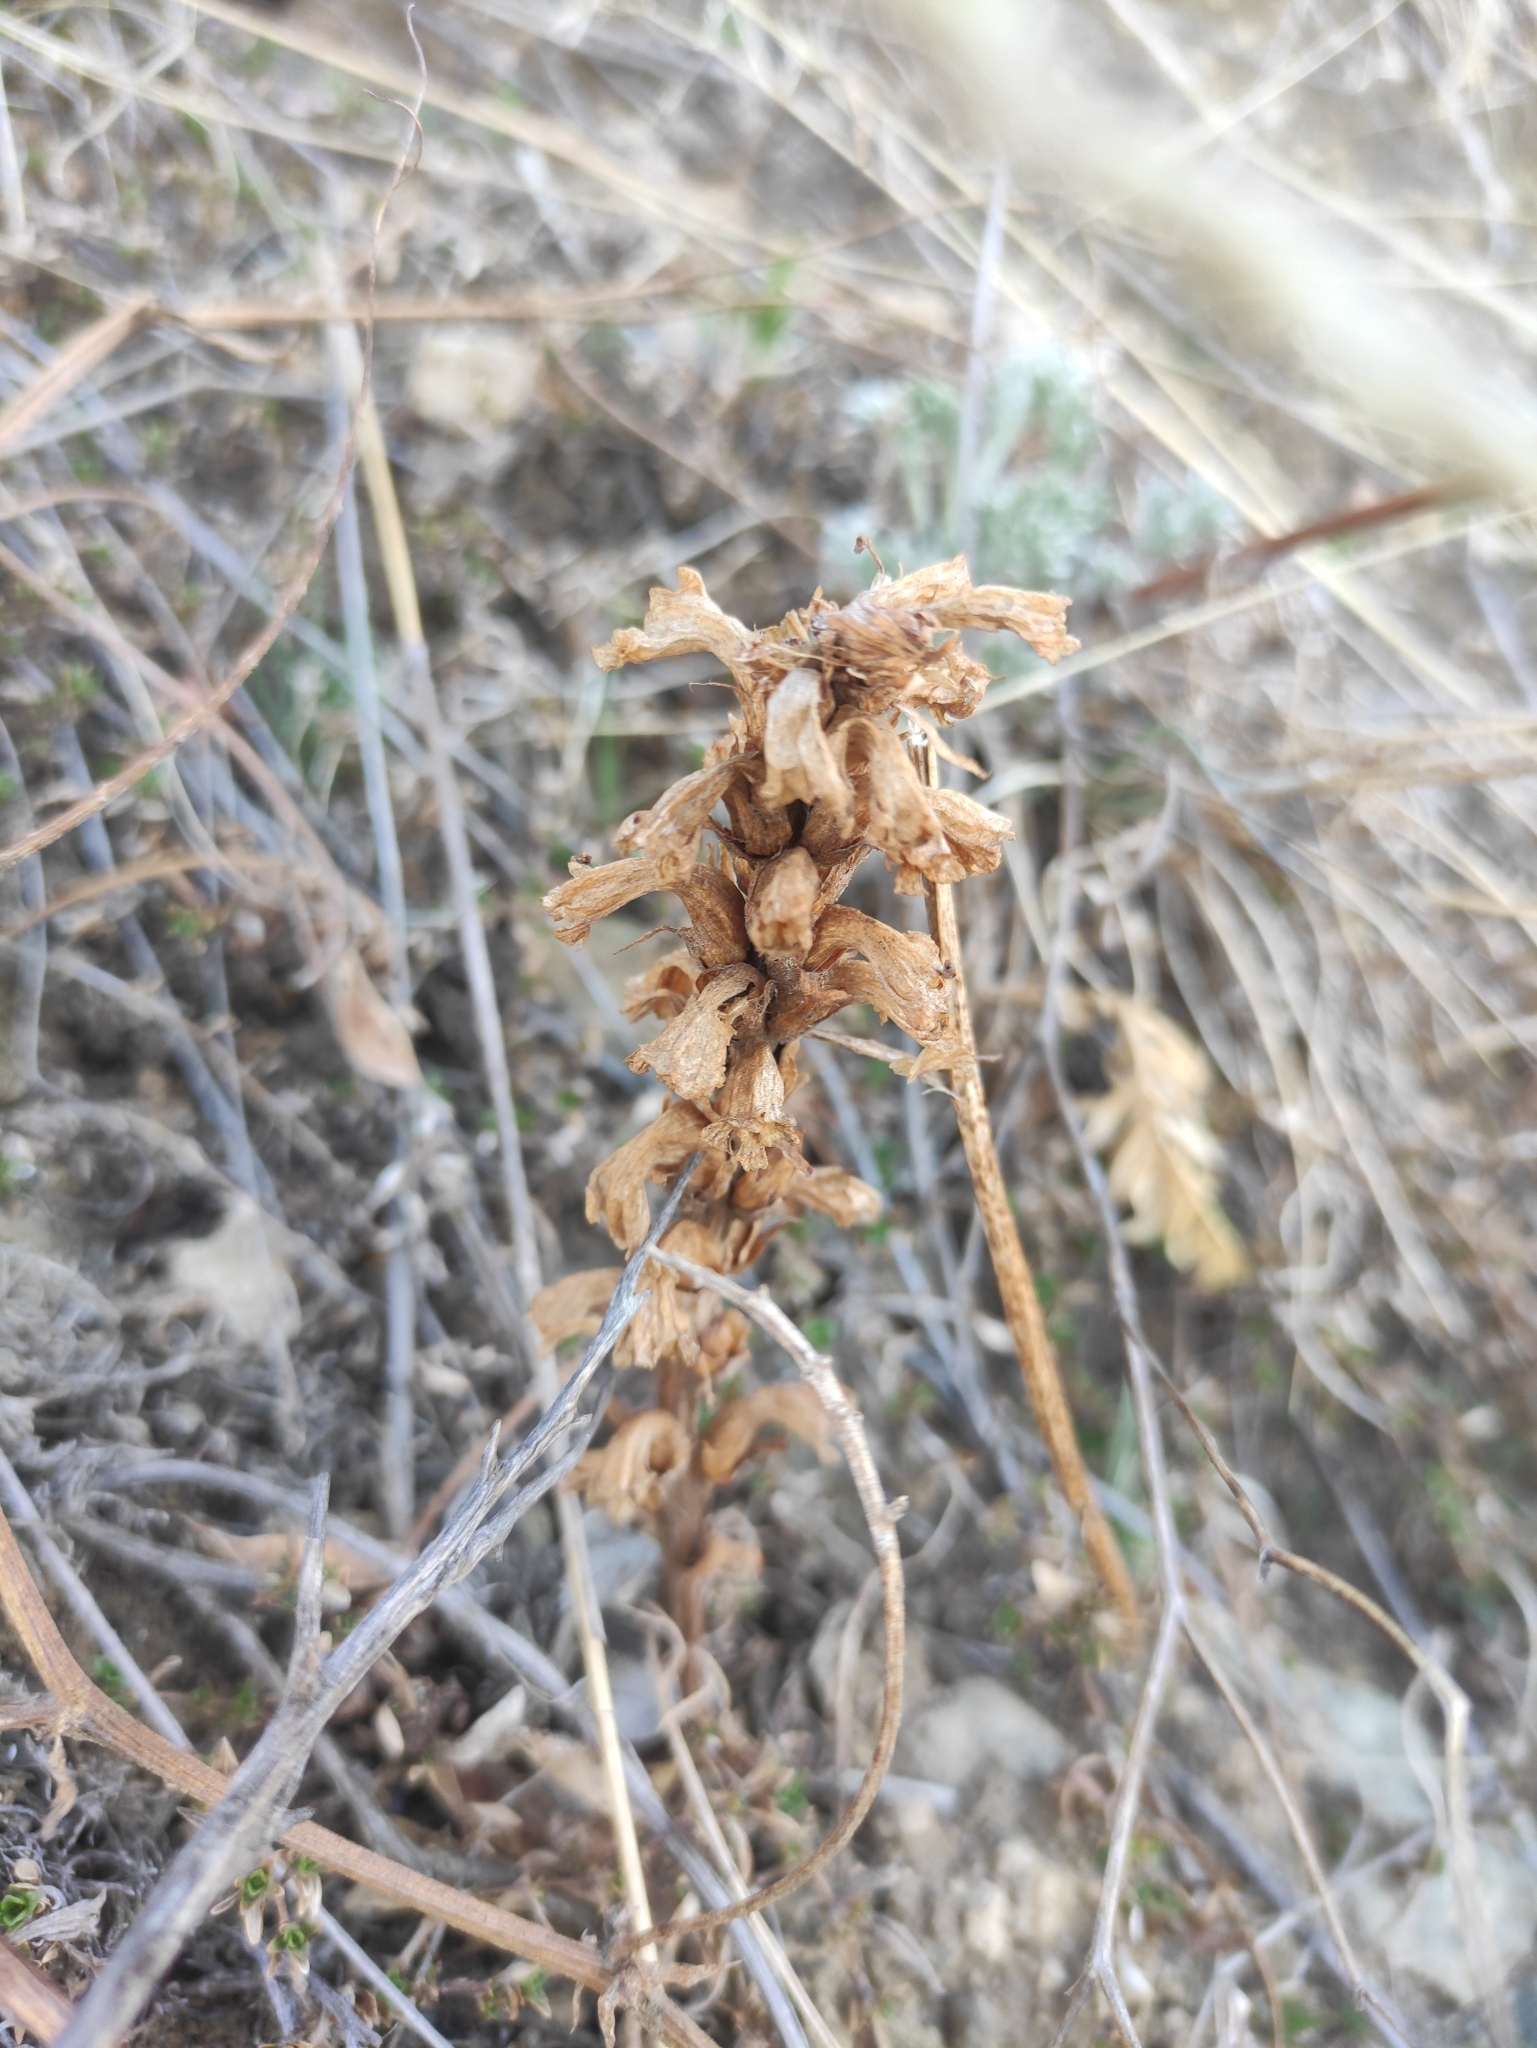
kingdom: Plantae
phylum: Tracheophyta
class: Magnoliopsida
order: Lamiales
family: Orobanchaceae
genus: Orobanche
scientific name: Orobanche coerulescens
